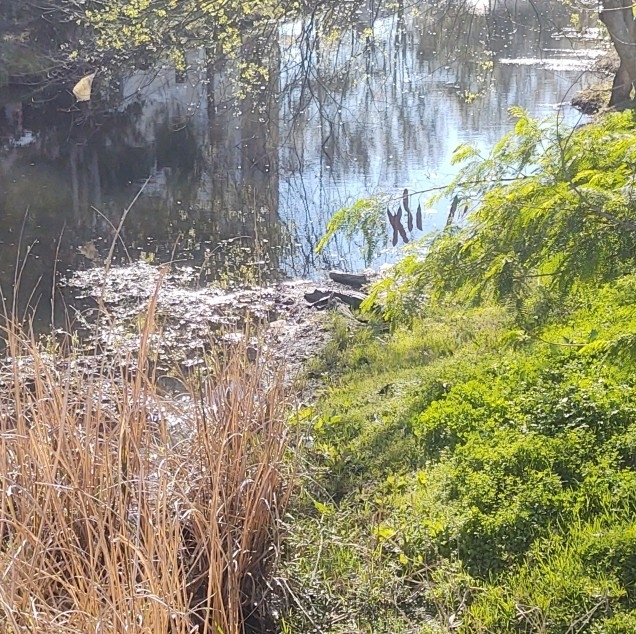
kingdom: Animalia
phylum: Chordata
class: Crocodylia
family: Alligatoridae
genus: Alligator
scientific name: Alligator mississippiensis
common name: American alligator
